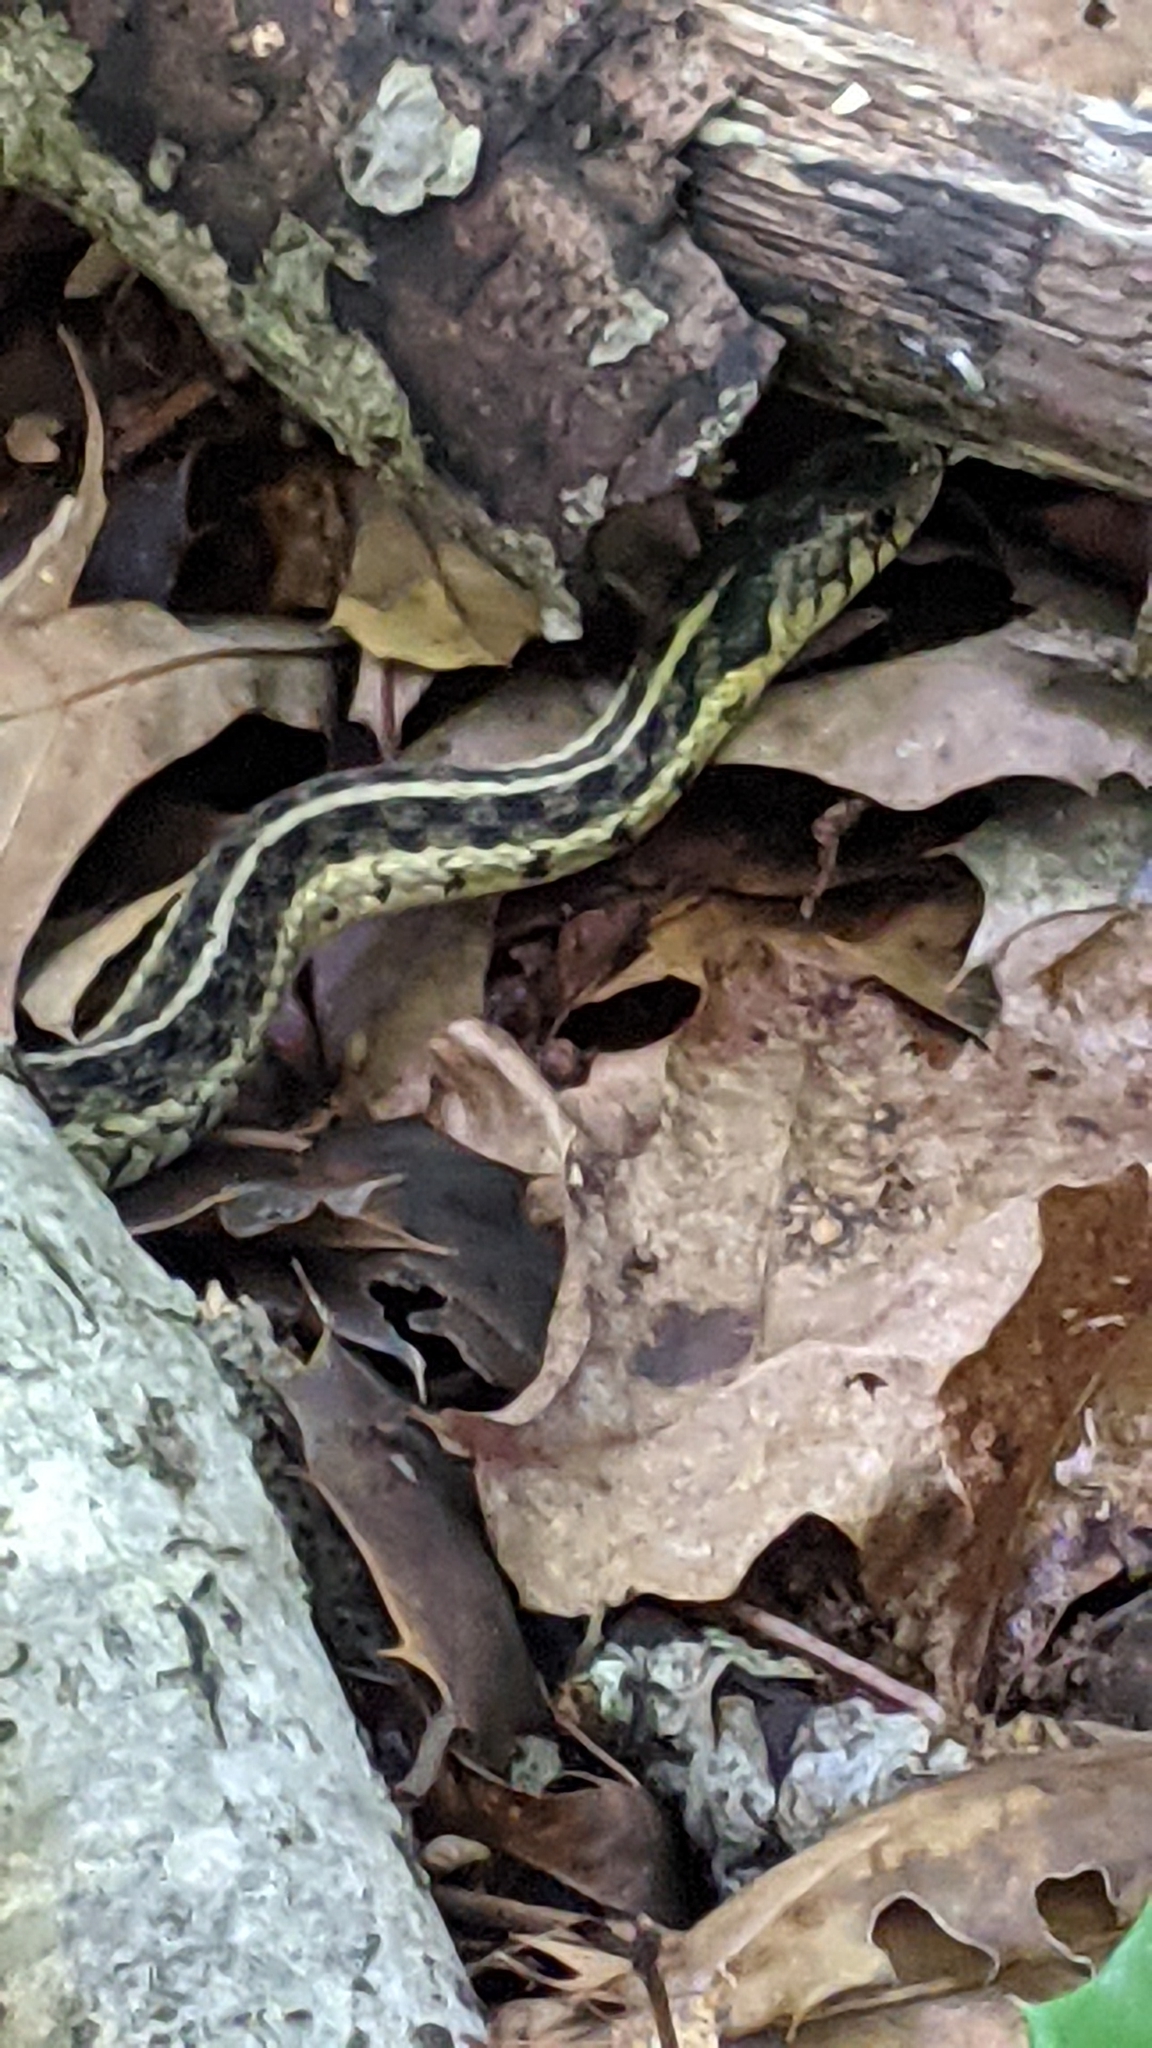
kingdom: Animalia
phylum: Chordata
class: Squamata
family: Colubridae
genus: Thamnophis
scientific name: Thamnophis sirtalis
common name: Common garter snake
